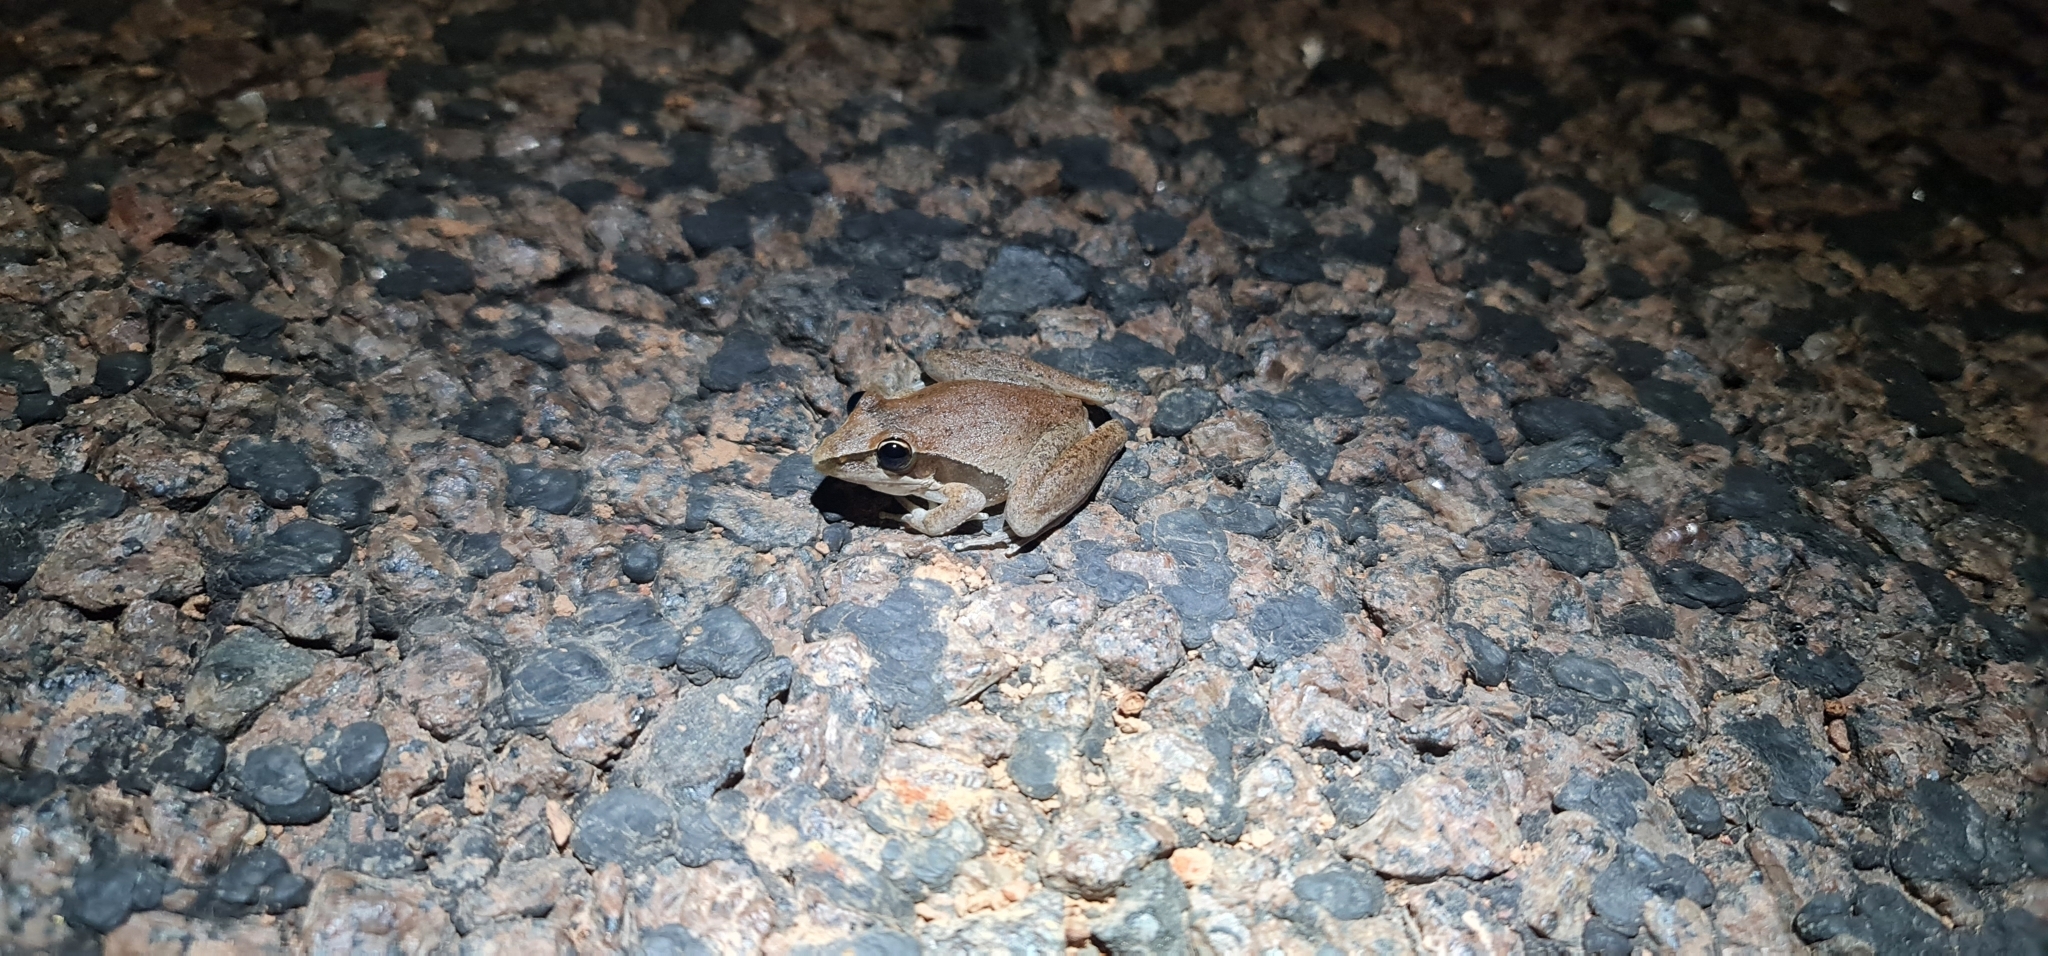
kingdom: Animalia
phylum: Chordata
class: Amphibia
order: Anura
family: Pelodryadidae
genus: Litoria
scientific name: Litoria watjulumensis
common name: Wotjulum frog
